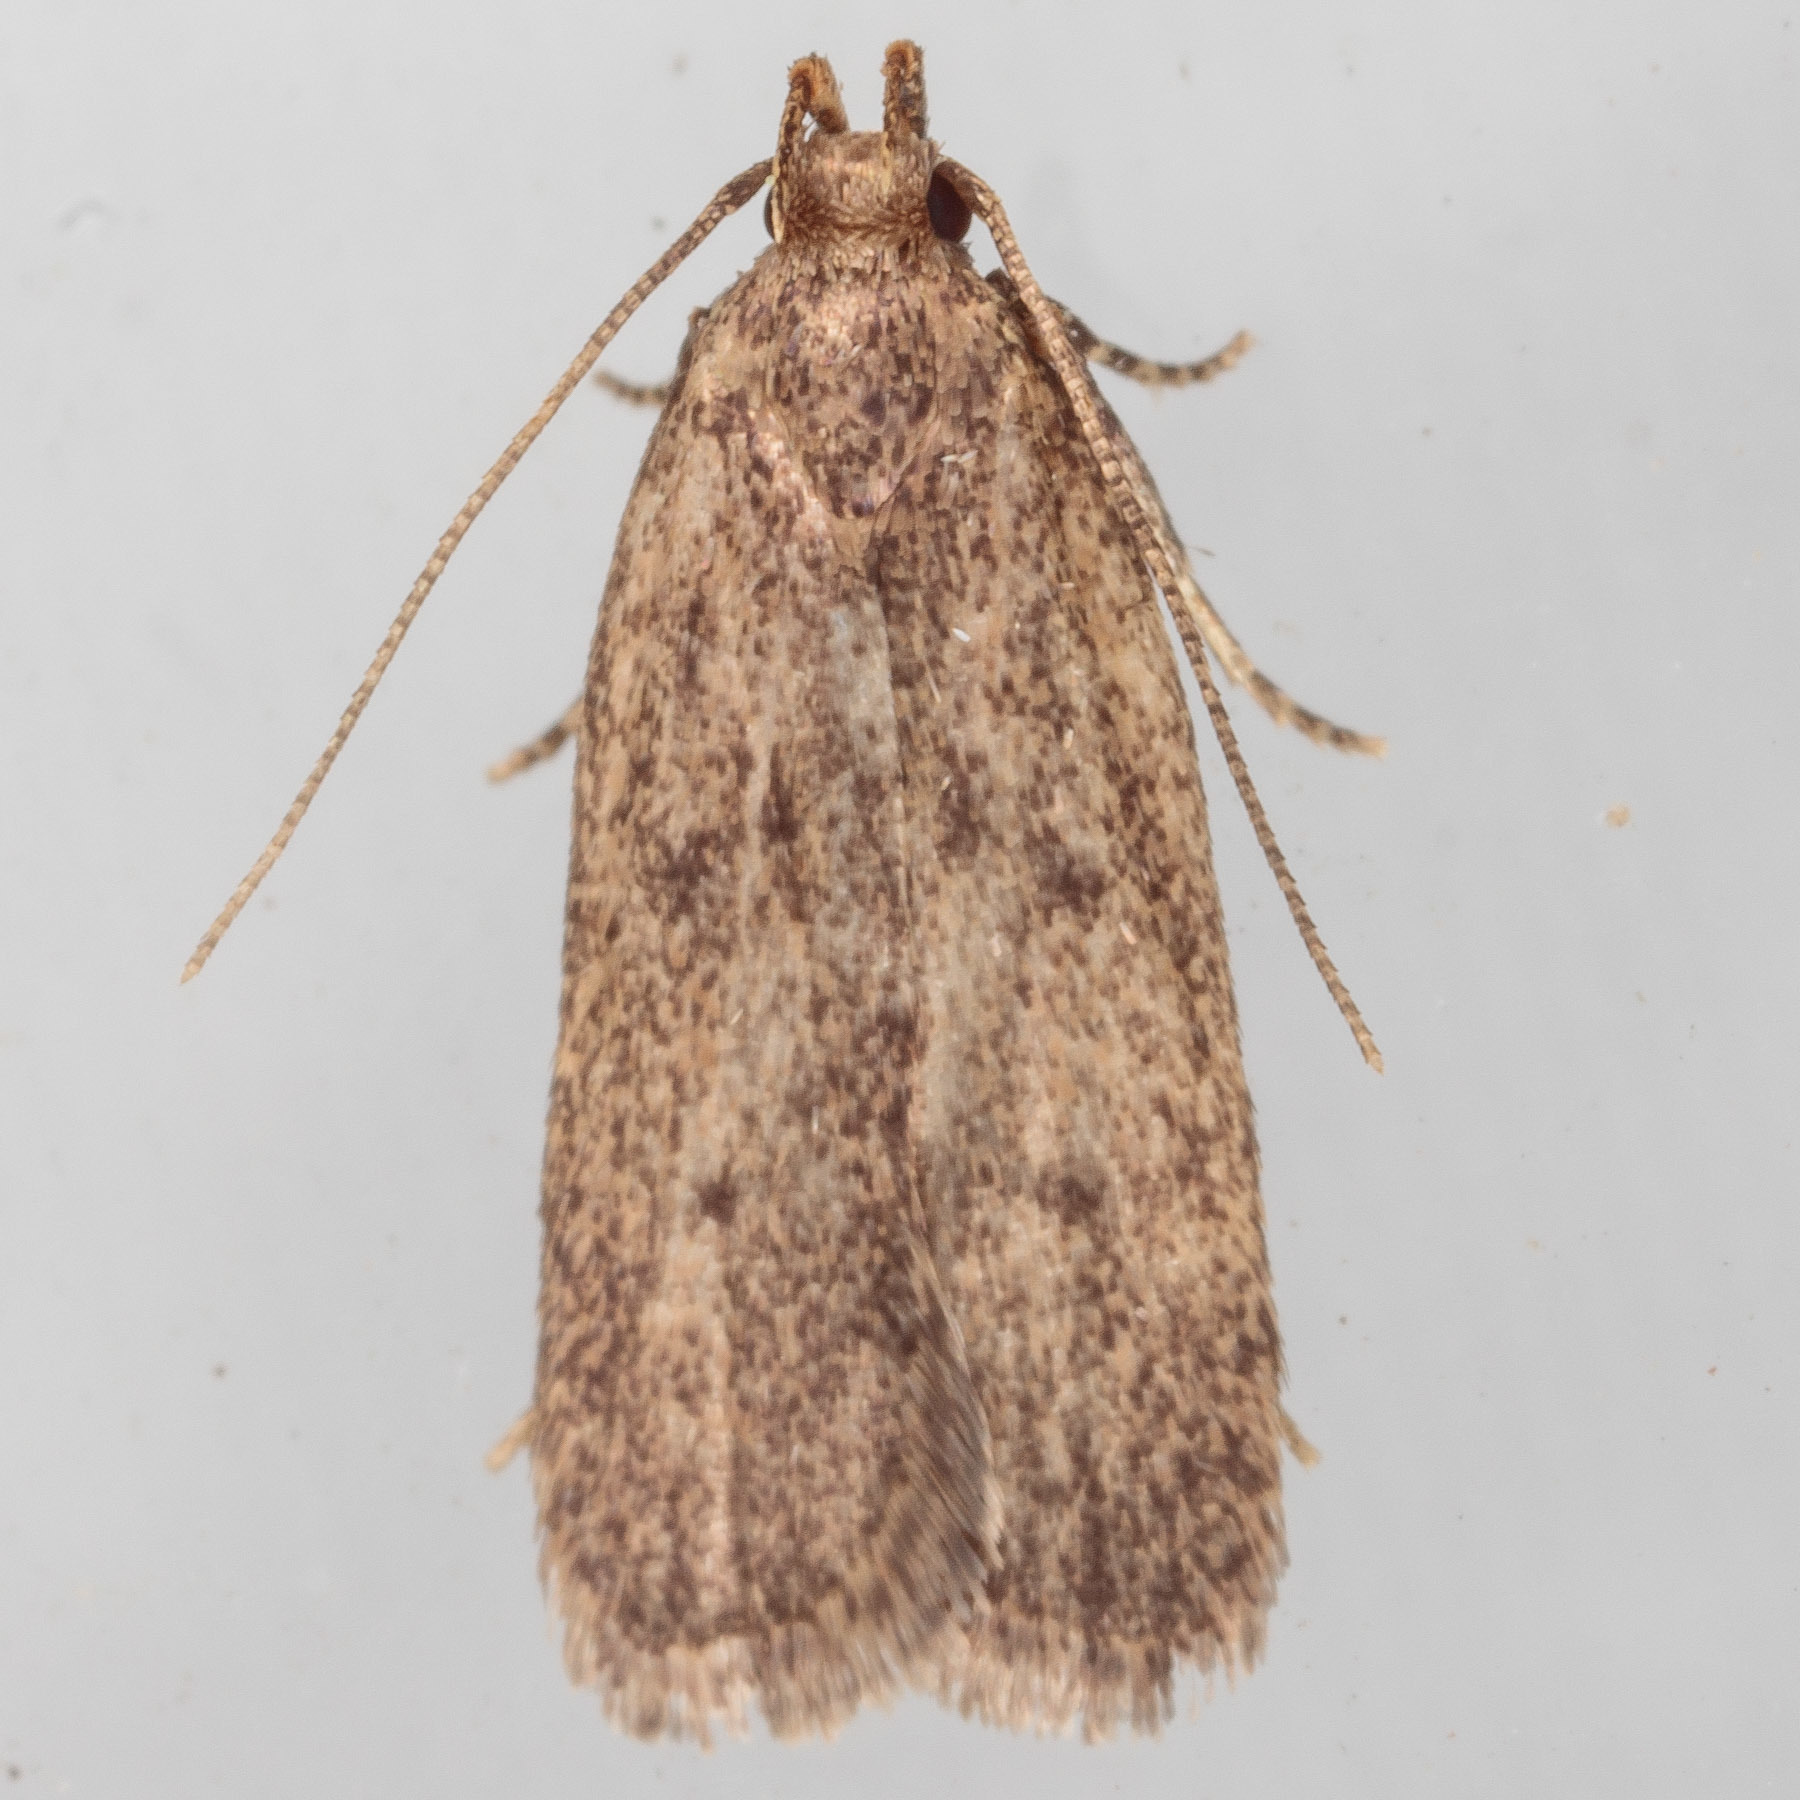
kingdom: Animalia
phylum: Arthropoda
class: Insecta
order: Lepidoptera
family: Autostichidae
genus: Glyphidocera
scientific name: Glyphidocera juniperella
